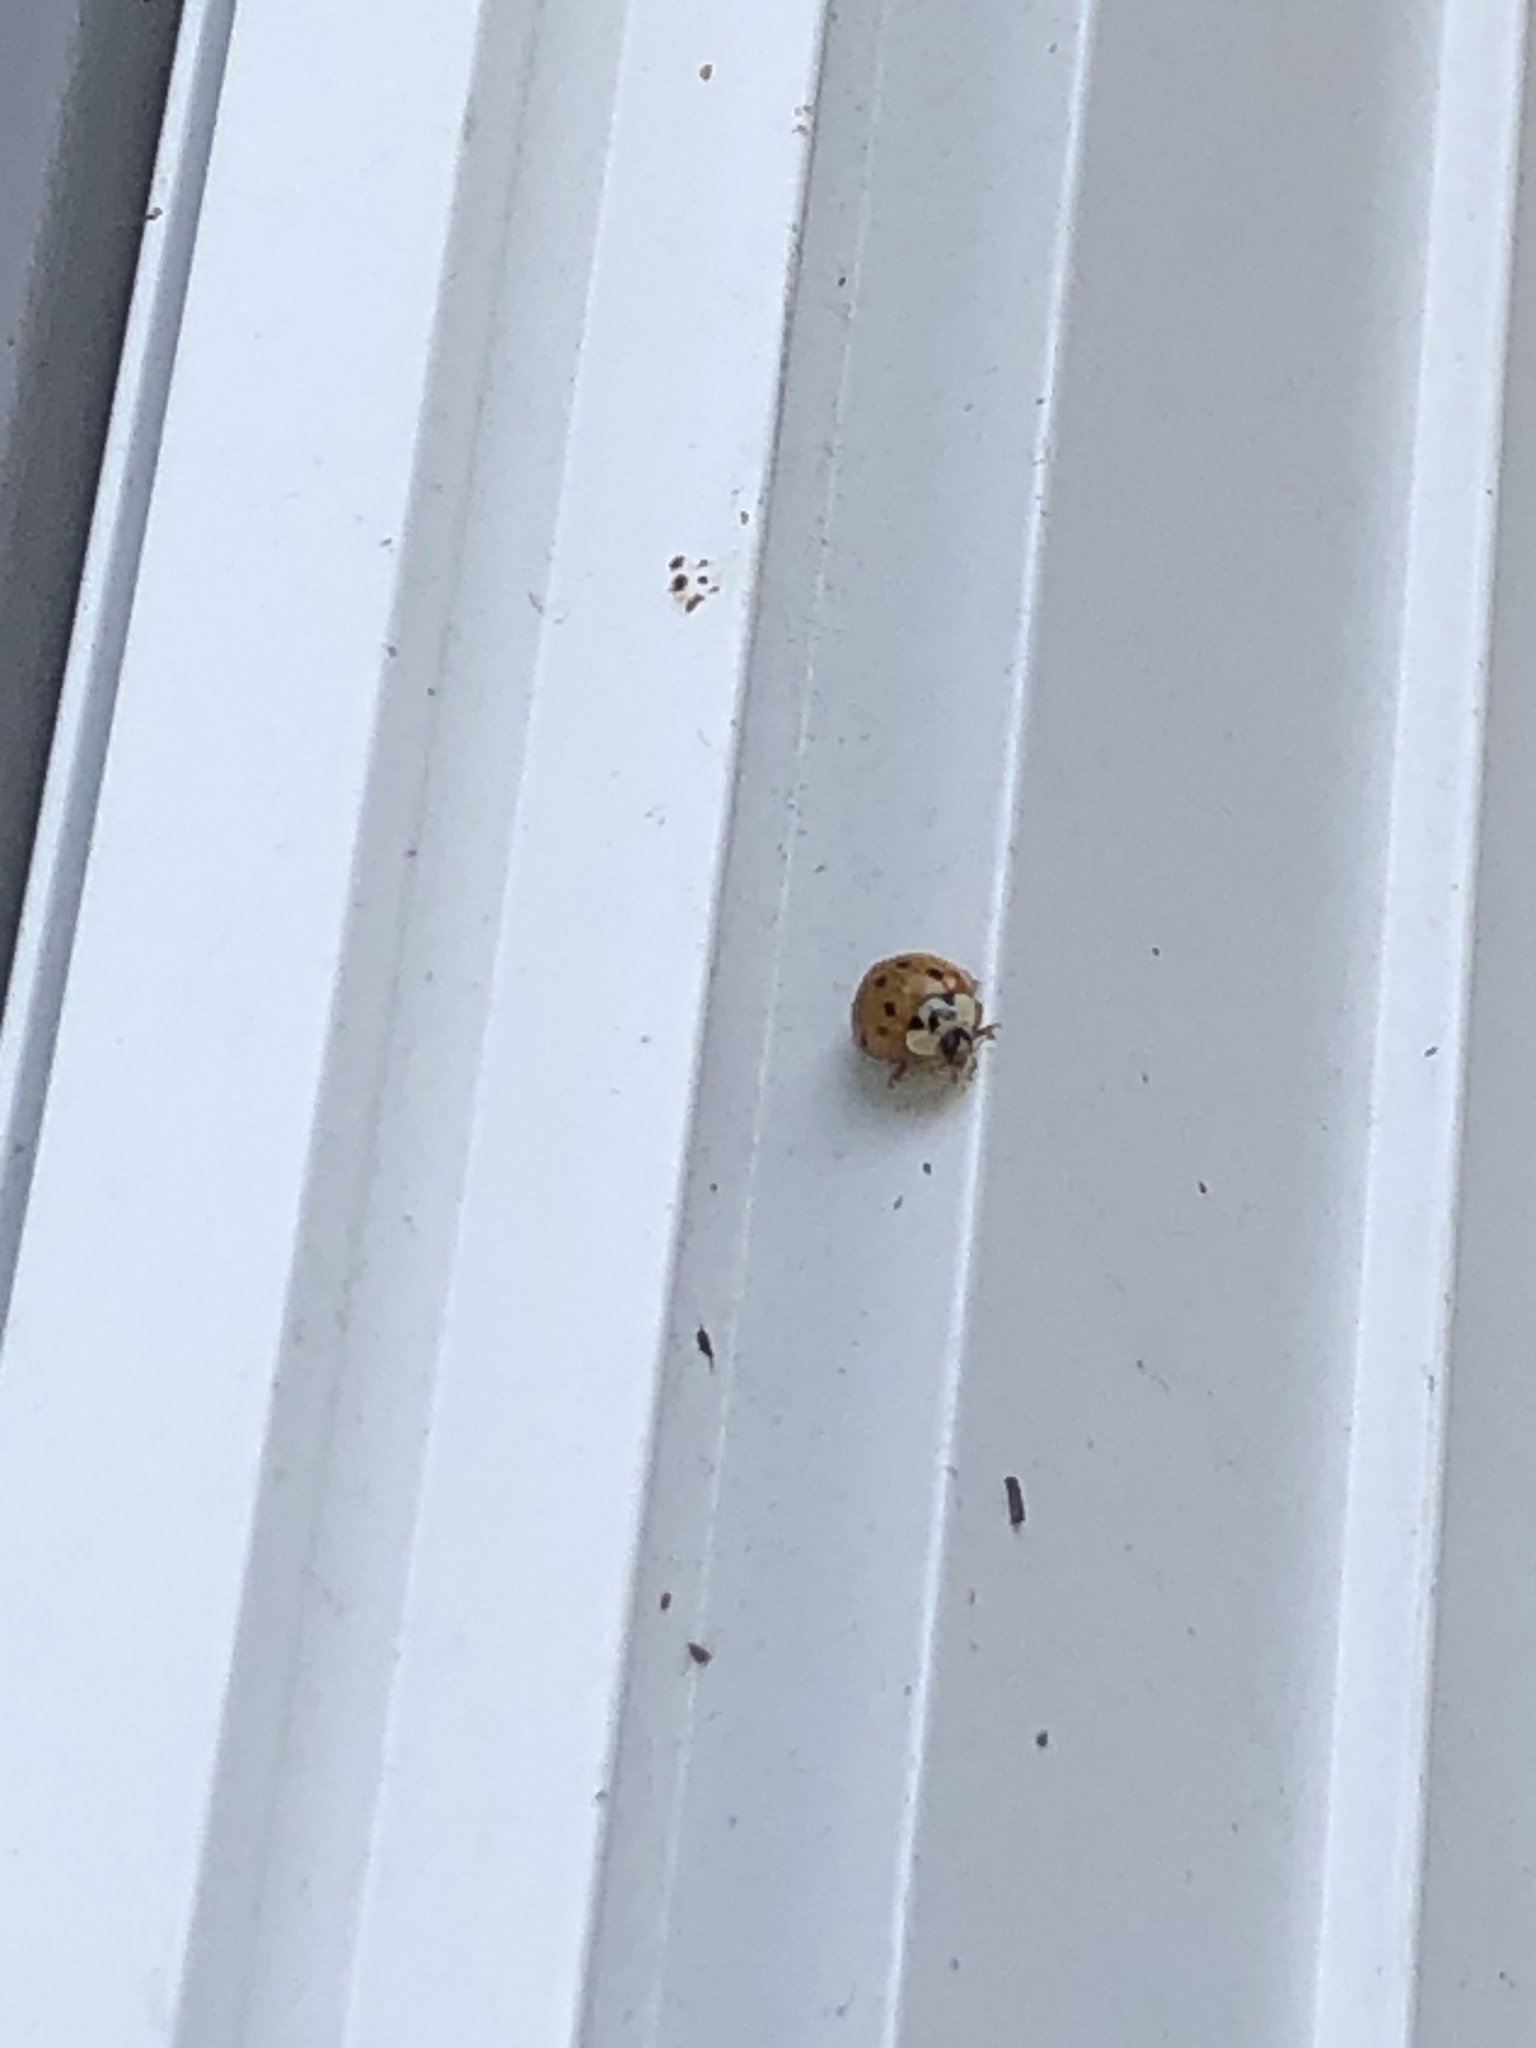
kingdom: Animalia
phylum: Arthropoda
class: Insecta
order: Coleoptera
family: Coccinellidae
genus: Harmonia
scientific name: Harmonia axyridis
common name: Harlequin ladybird
